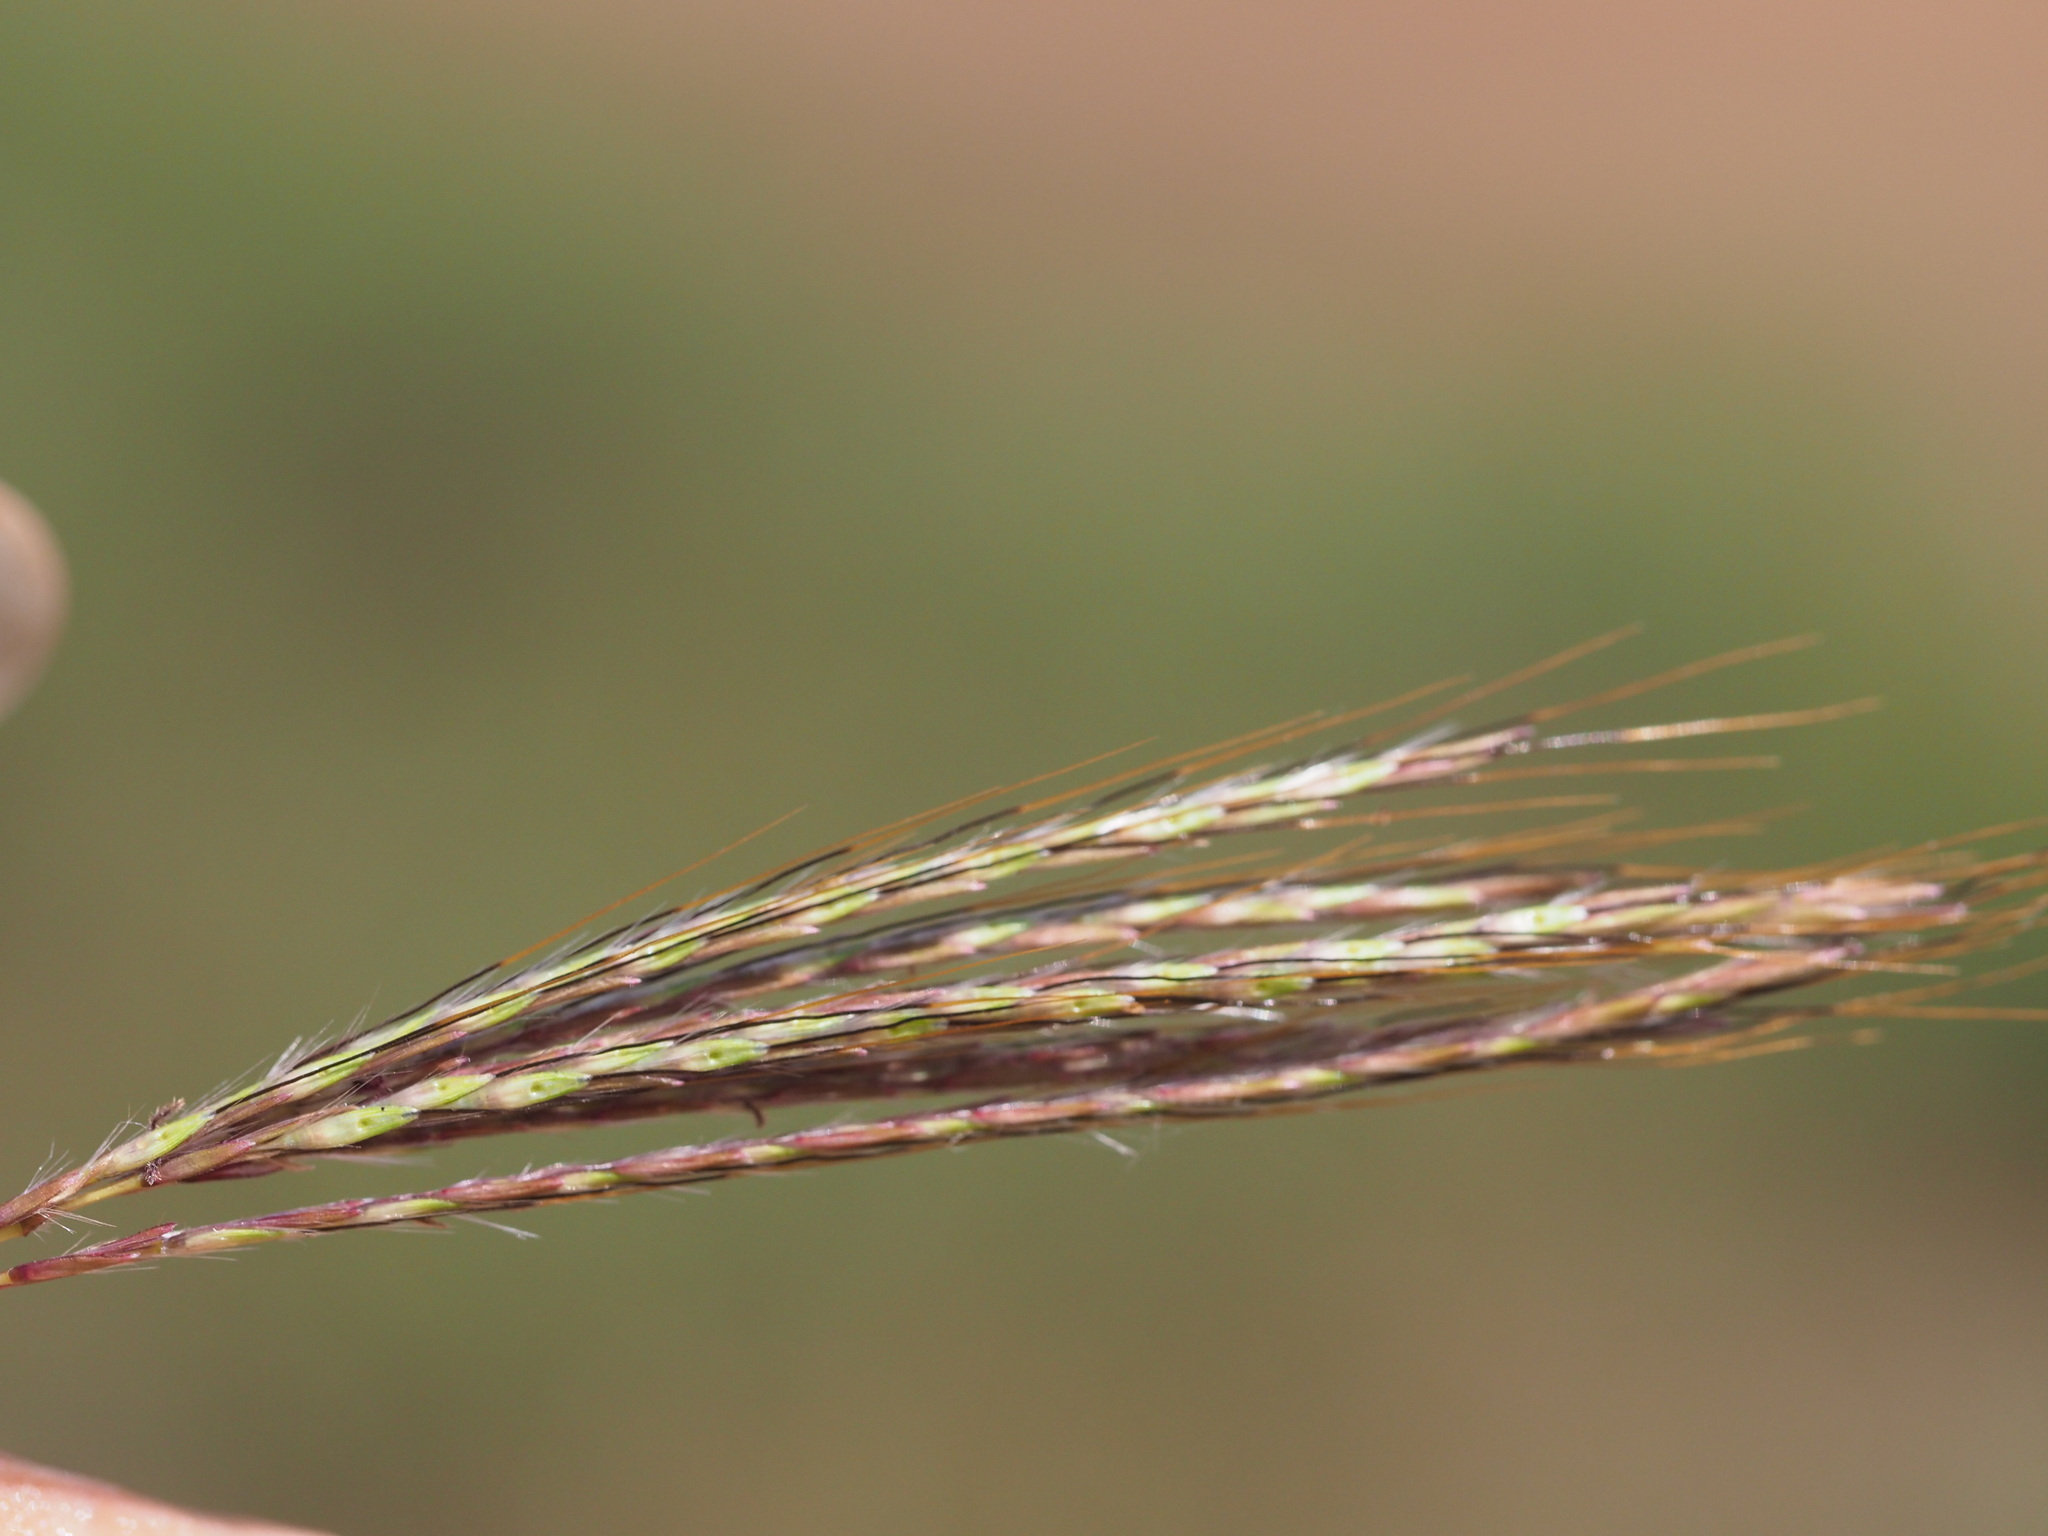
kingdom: Plantae
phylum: Tracheophyta
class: Liliopsida
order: Poales
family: Poaceae
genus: Bothriochloa
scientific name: Bothriochloa pertusa
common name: Pitted beardgrass
